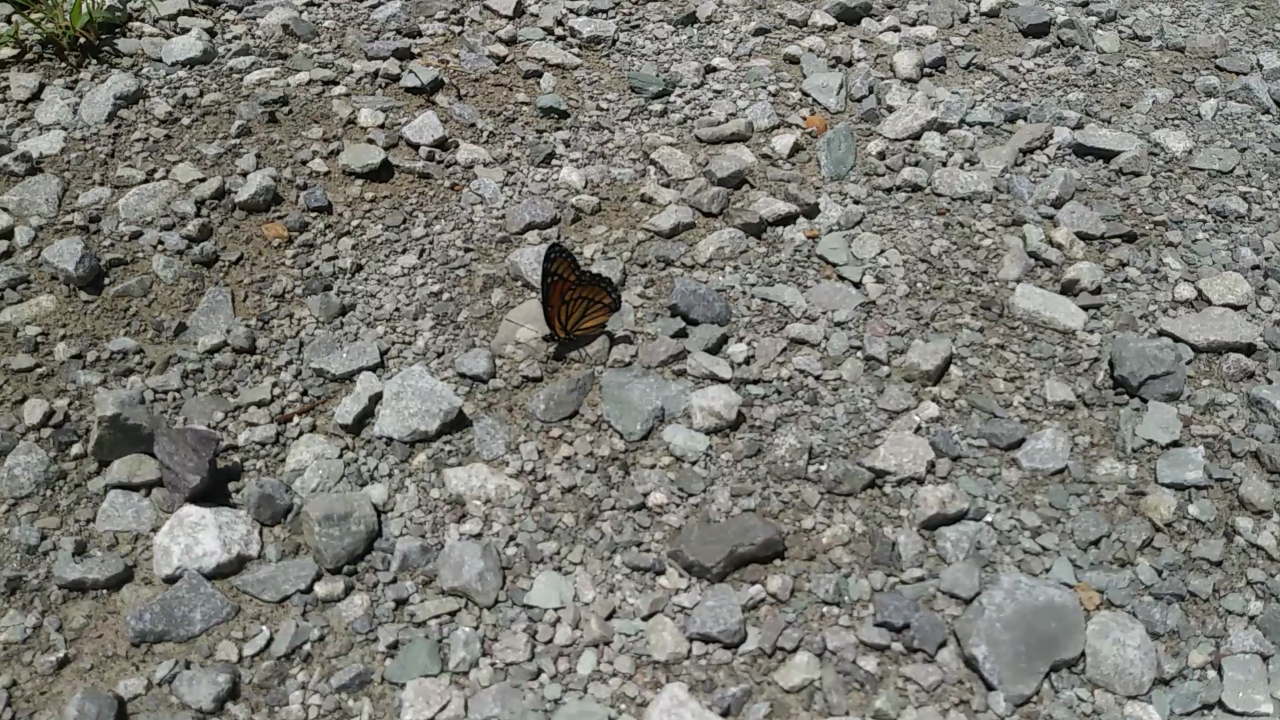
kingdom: Animalia
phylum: Arthropoda
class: Insecta
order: Lepidoptera
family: Nymphalidae
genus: Limenitis
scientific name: Limenitis archippus
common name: Viceroy
